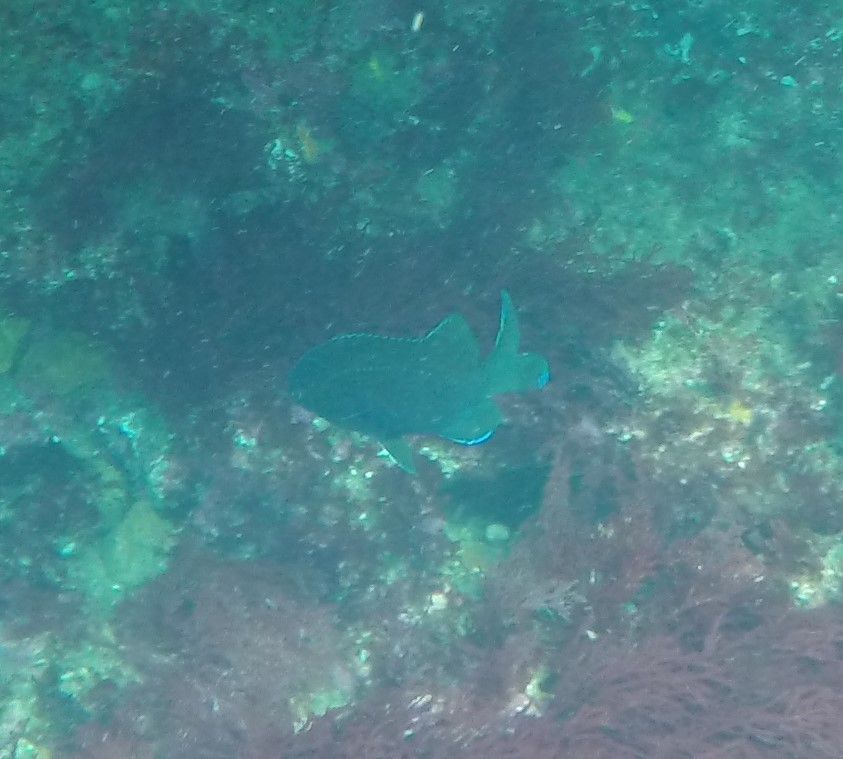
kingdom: Animalia
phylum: Chordata
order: Perciformes
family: Pomacentridae
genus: Parma
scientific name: Parma victoriae
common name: Rock perch
